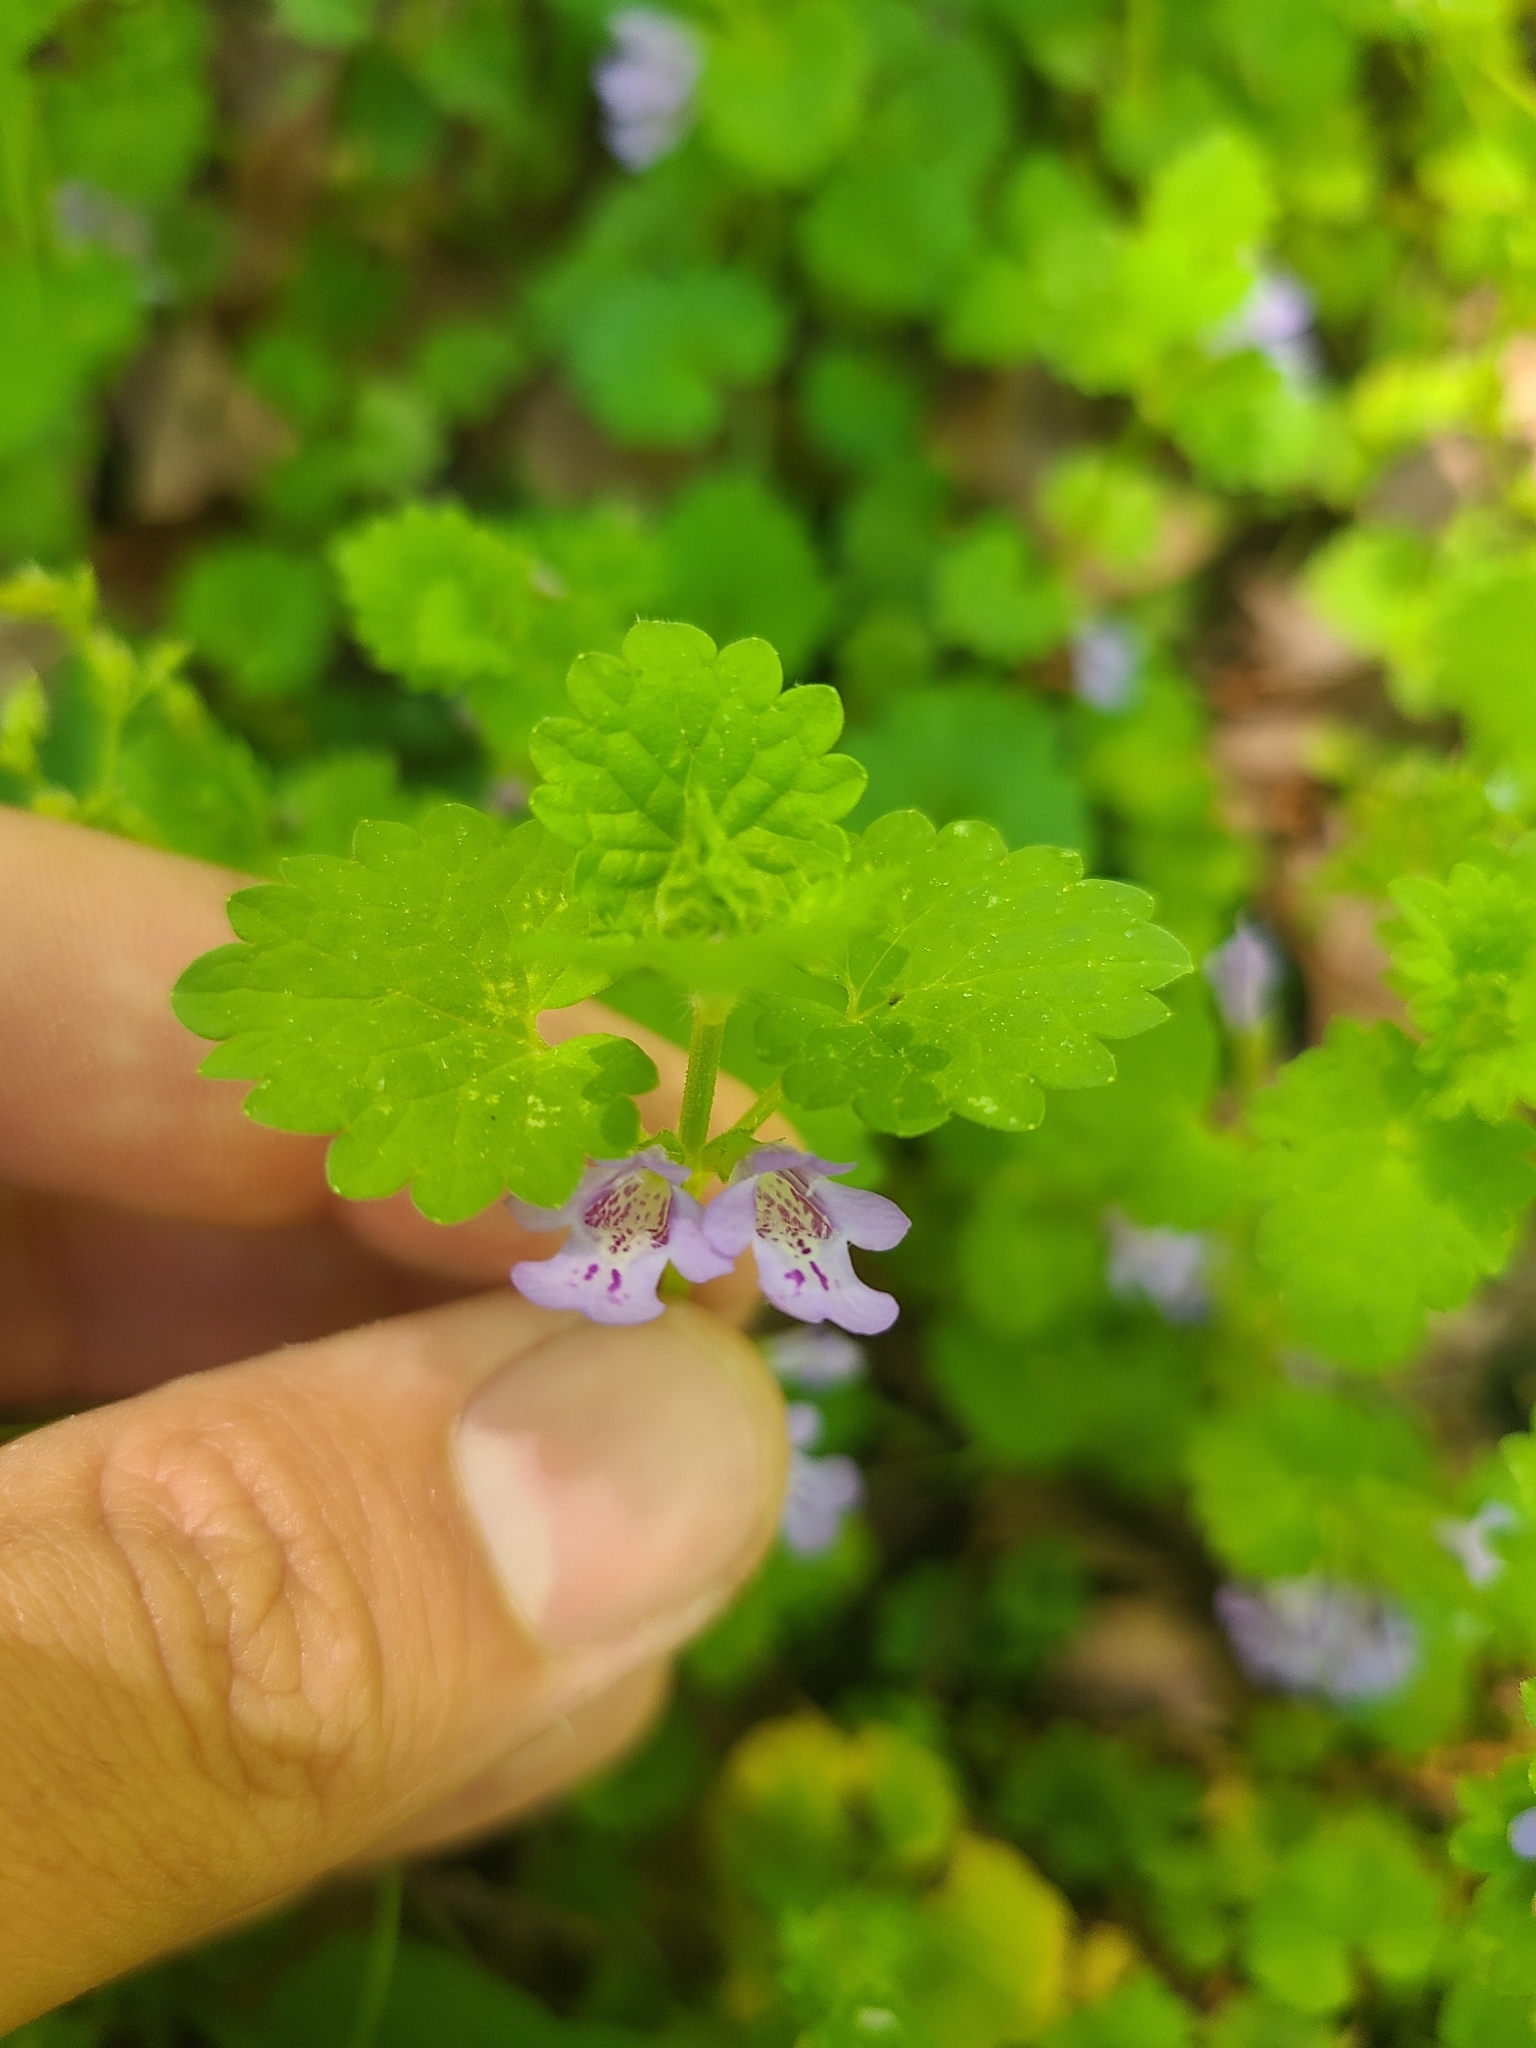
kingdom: Plantae
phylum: Tracheophyta
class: Magnoliopsida
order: Lamiales
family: Lamiaceae
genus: Glechoma
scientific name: Glechoma hederacea
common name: Ground ivy
